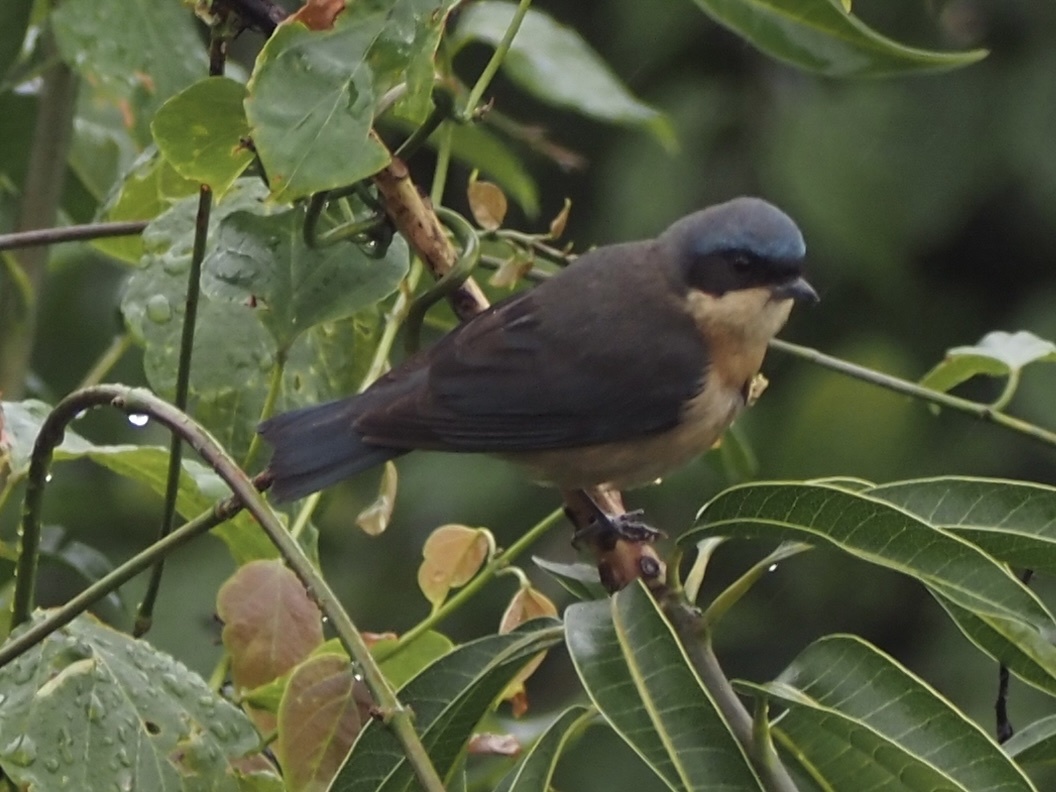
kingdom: Animalia
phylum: Chordata
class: Aves
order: Passeriformes
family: Thraupidae
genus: Pipraeidea
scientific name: Pipraeidea melanonota
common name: Fawn-breasted tanager
